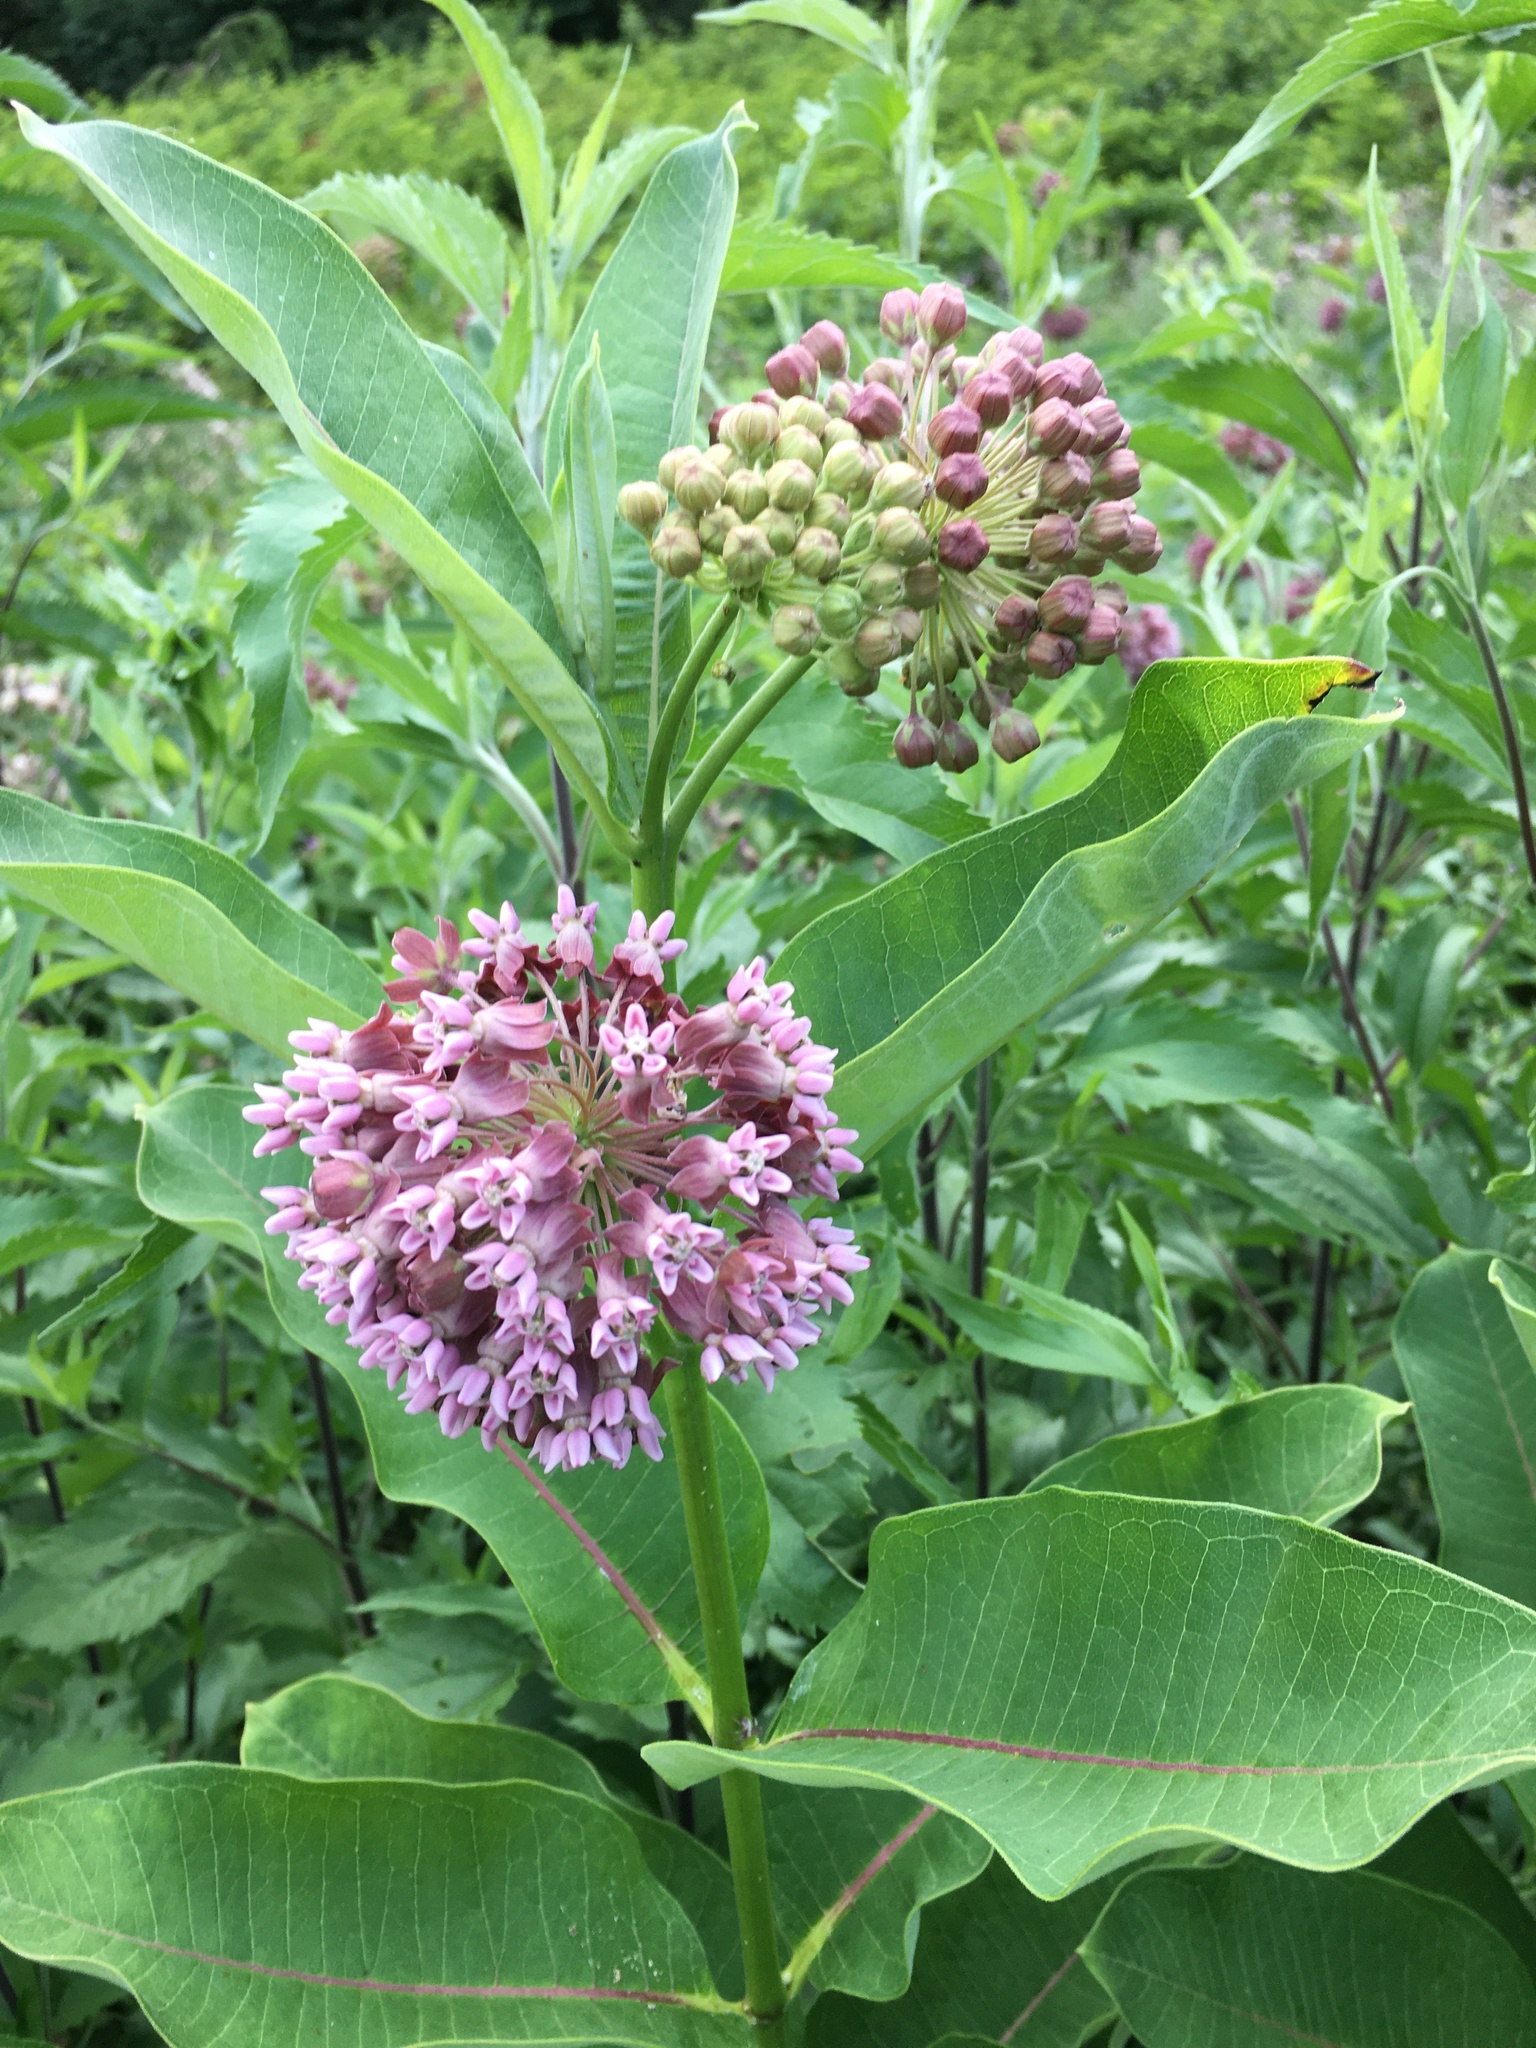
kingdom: Plantae
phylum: Tracheophyta
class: Magnoliopsida
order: Gentianales
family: Apocynaceae
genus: Asclepias
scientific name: Asclepias syriaca
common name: Common milkweed
